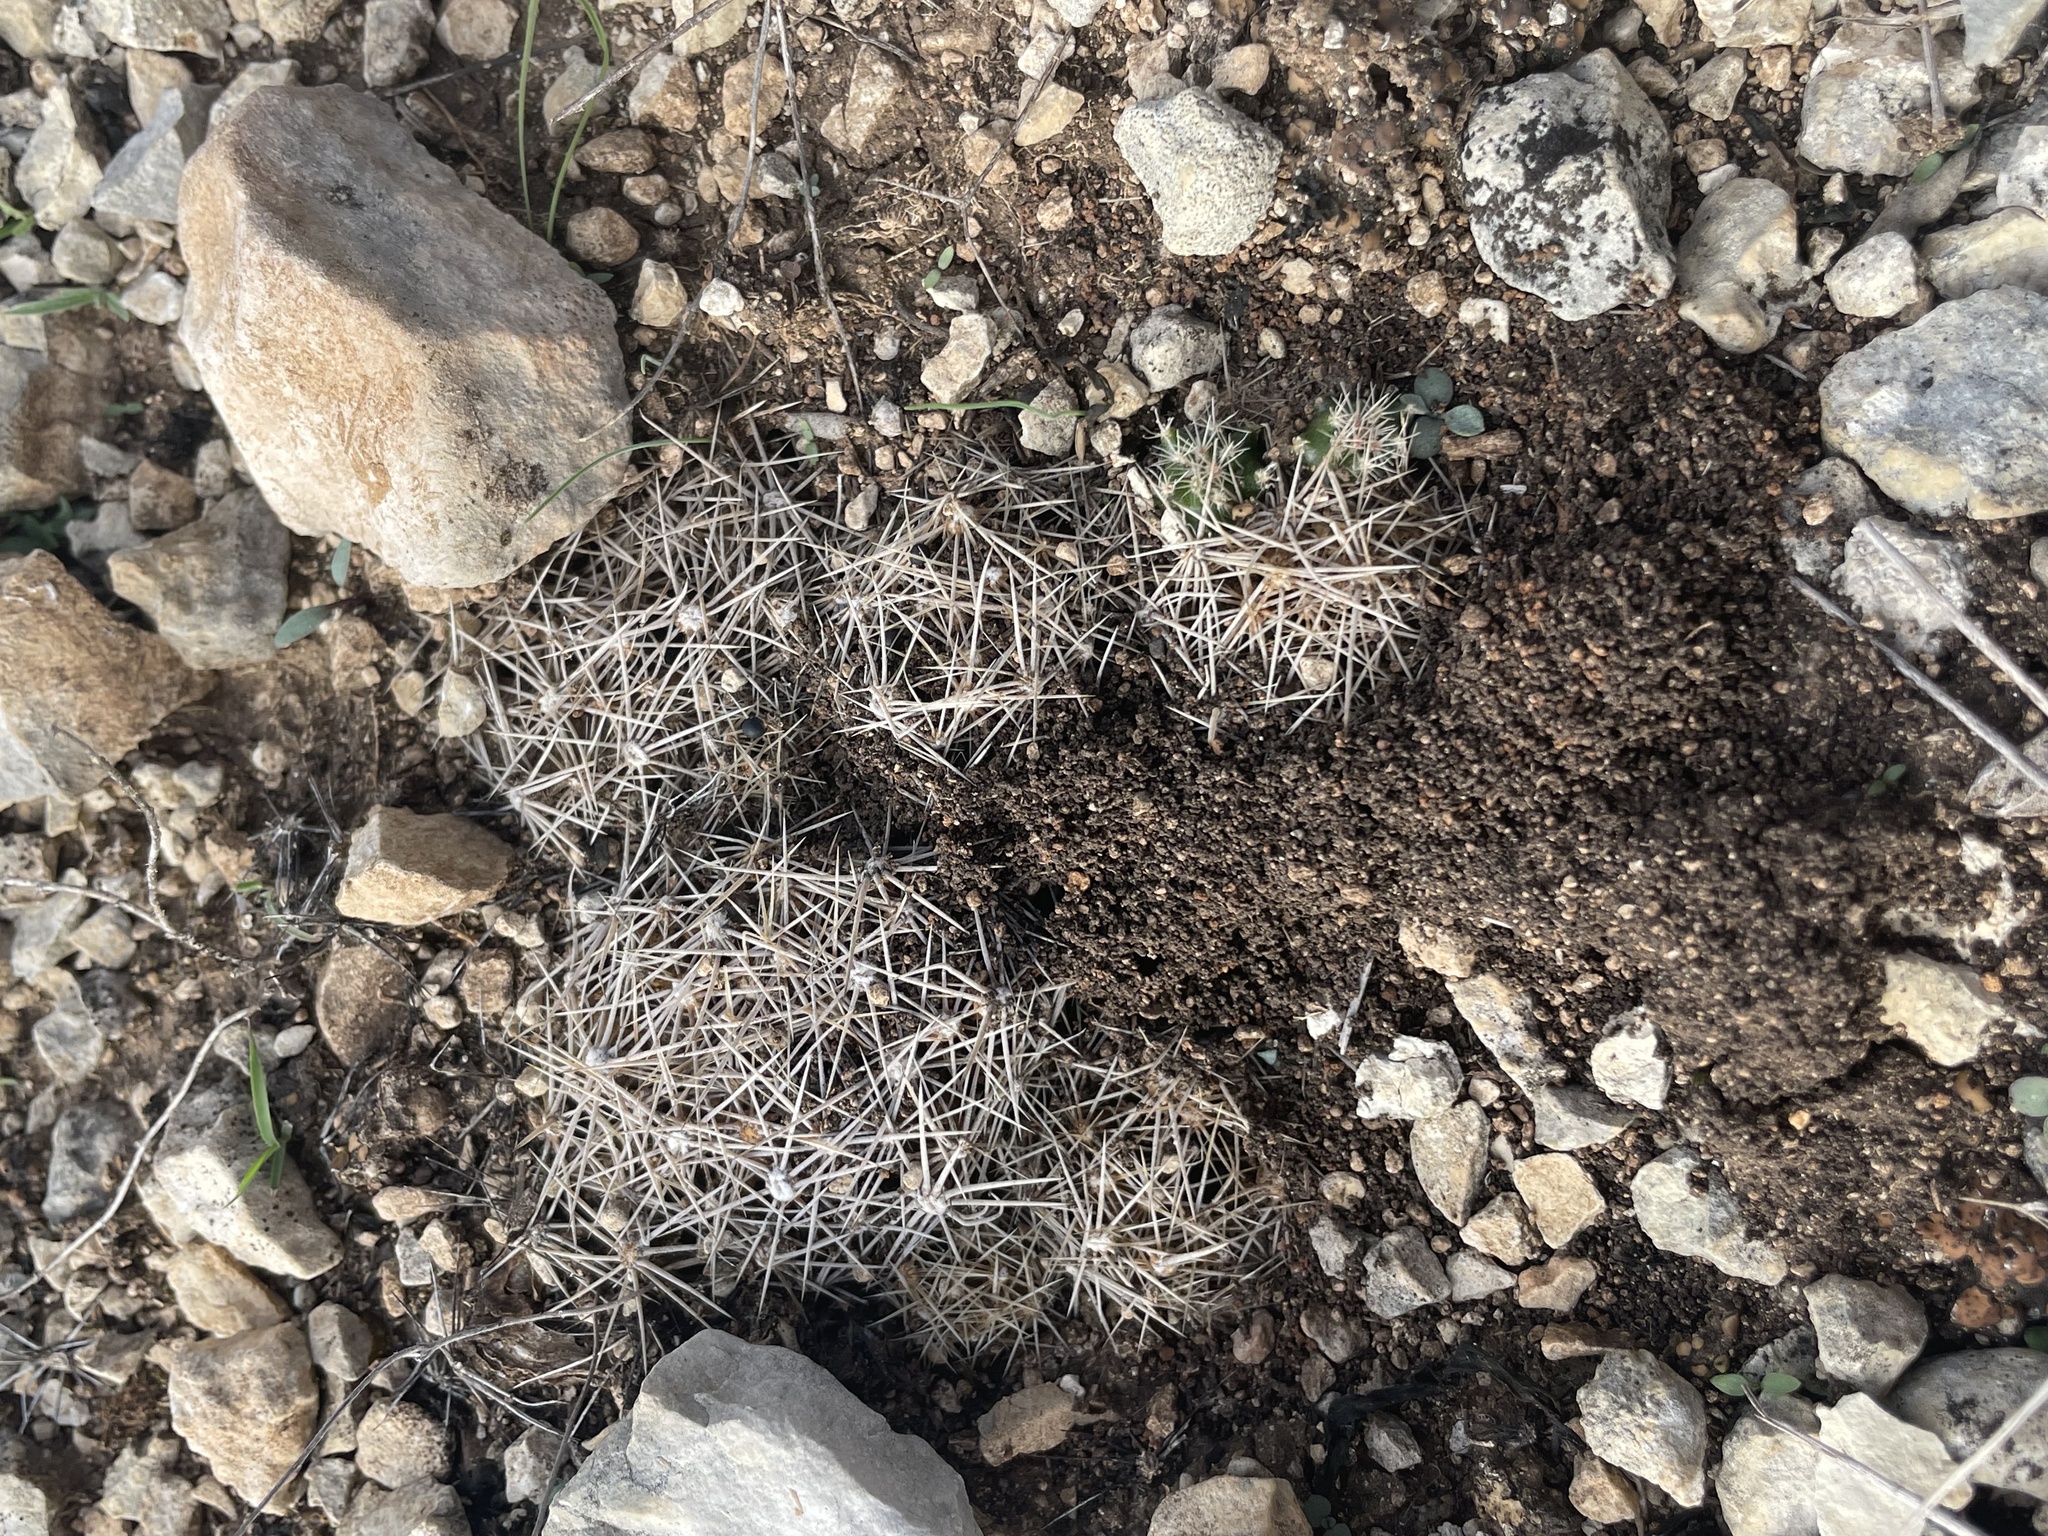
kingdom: Plantae
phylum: Tracheophyta
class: Magnoliopsida
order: Caryophyllales
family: Cactaceae
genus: Coryphantha
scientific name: Coryphantha sulcata
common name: Finger cactus
